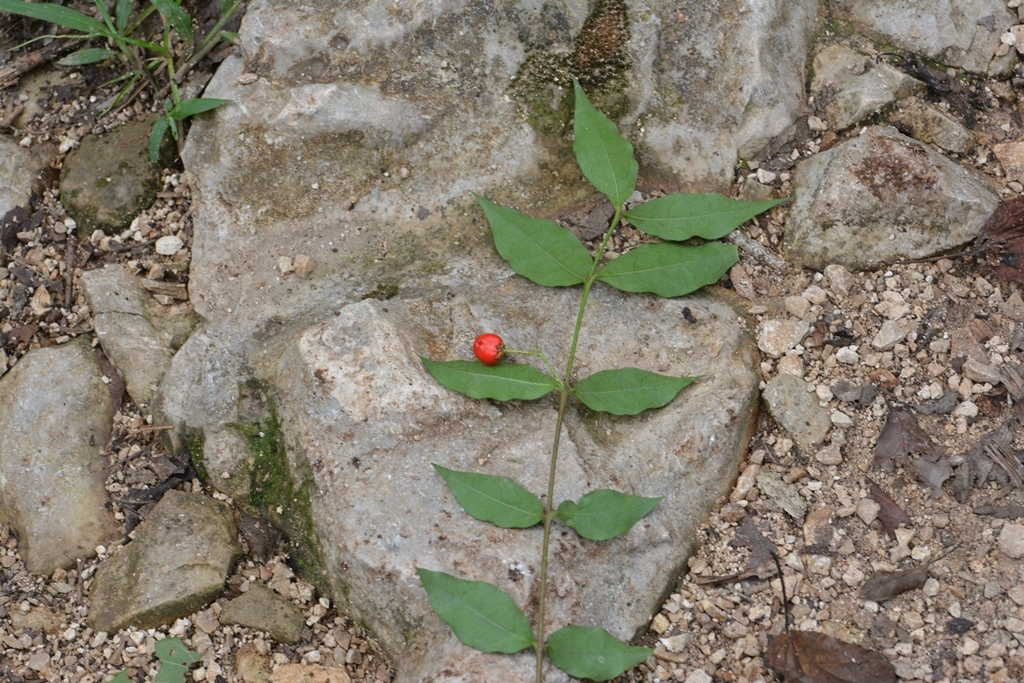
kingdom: Plantae
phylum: Tracheophyta
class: Magnoliopsida
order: Malpighiales
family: Malpighiaceae
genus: Malpighia
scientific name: Malpighia glabra
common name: Barbados cherry
